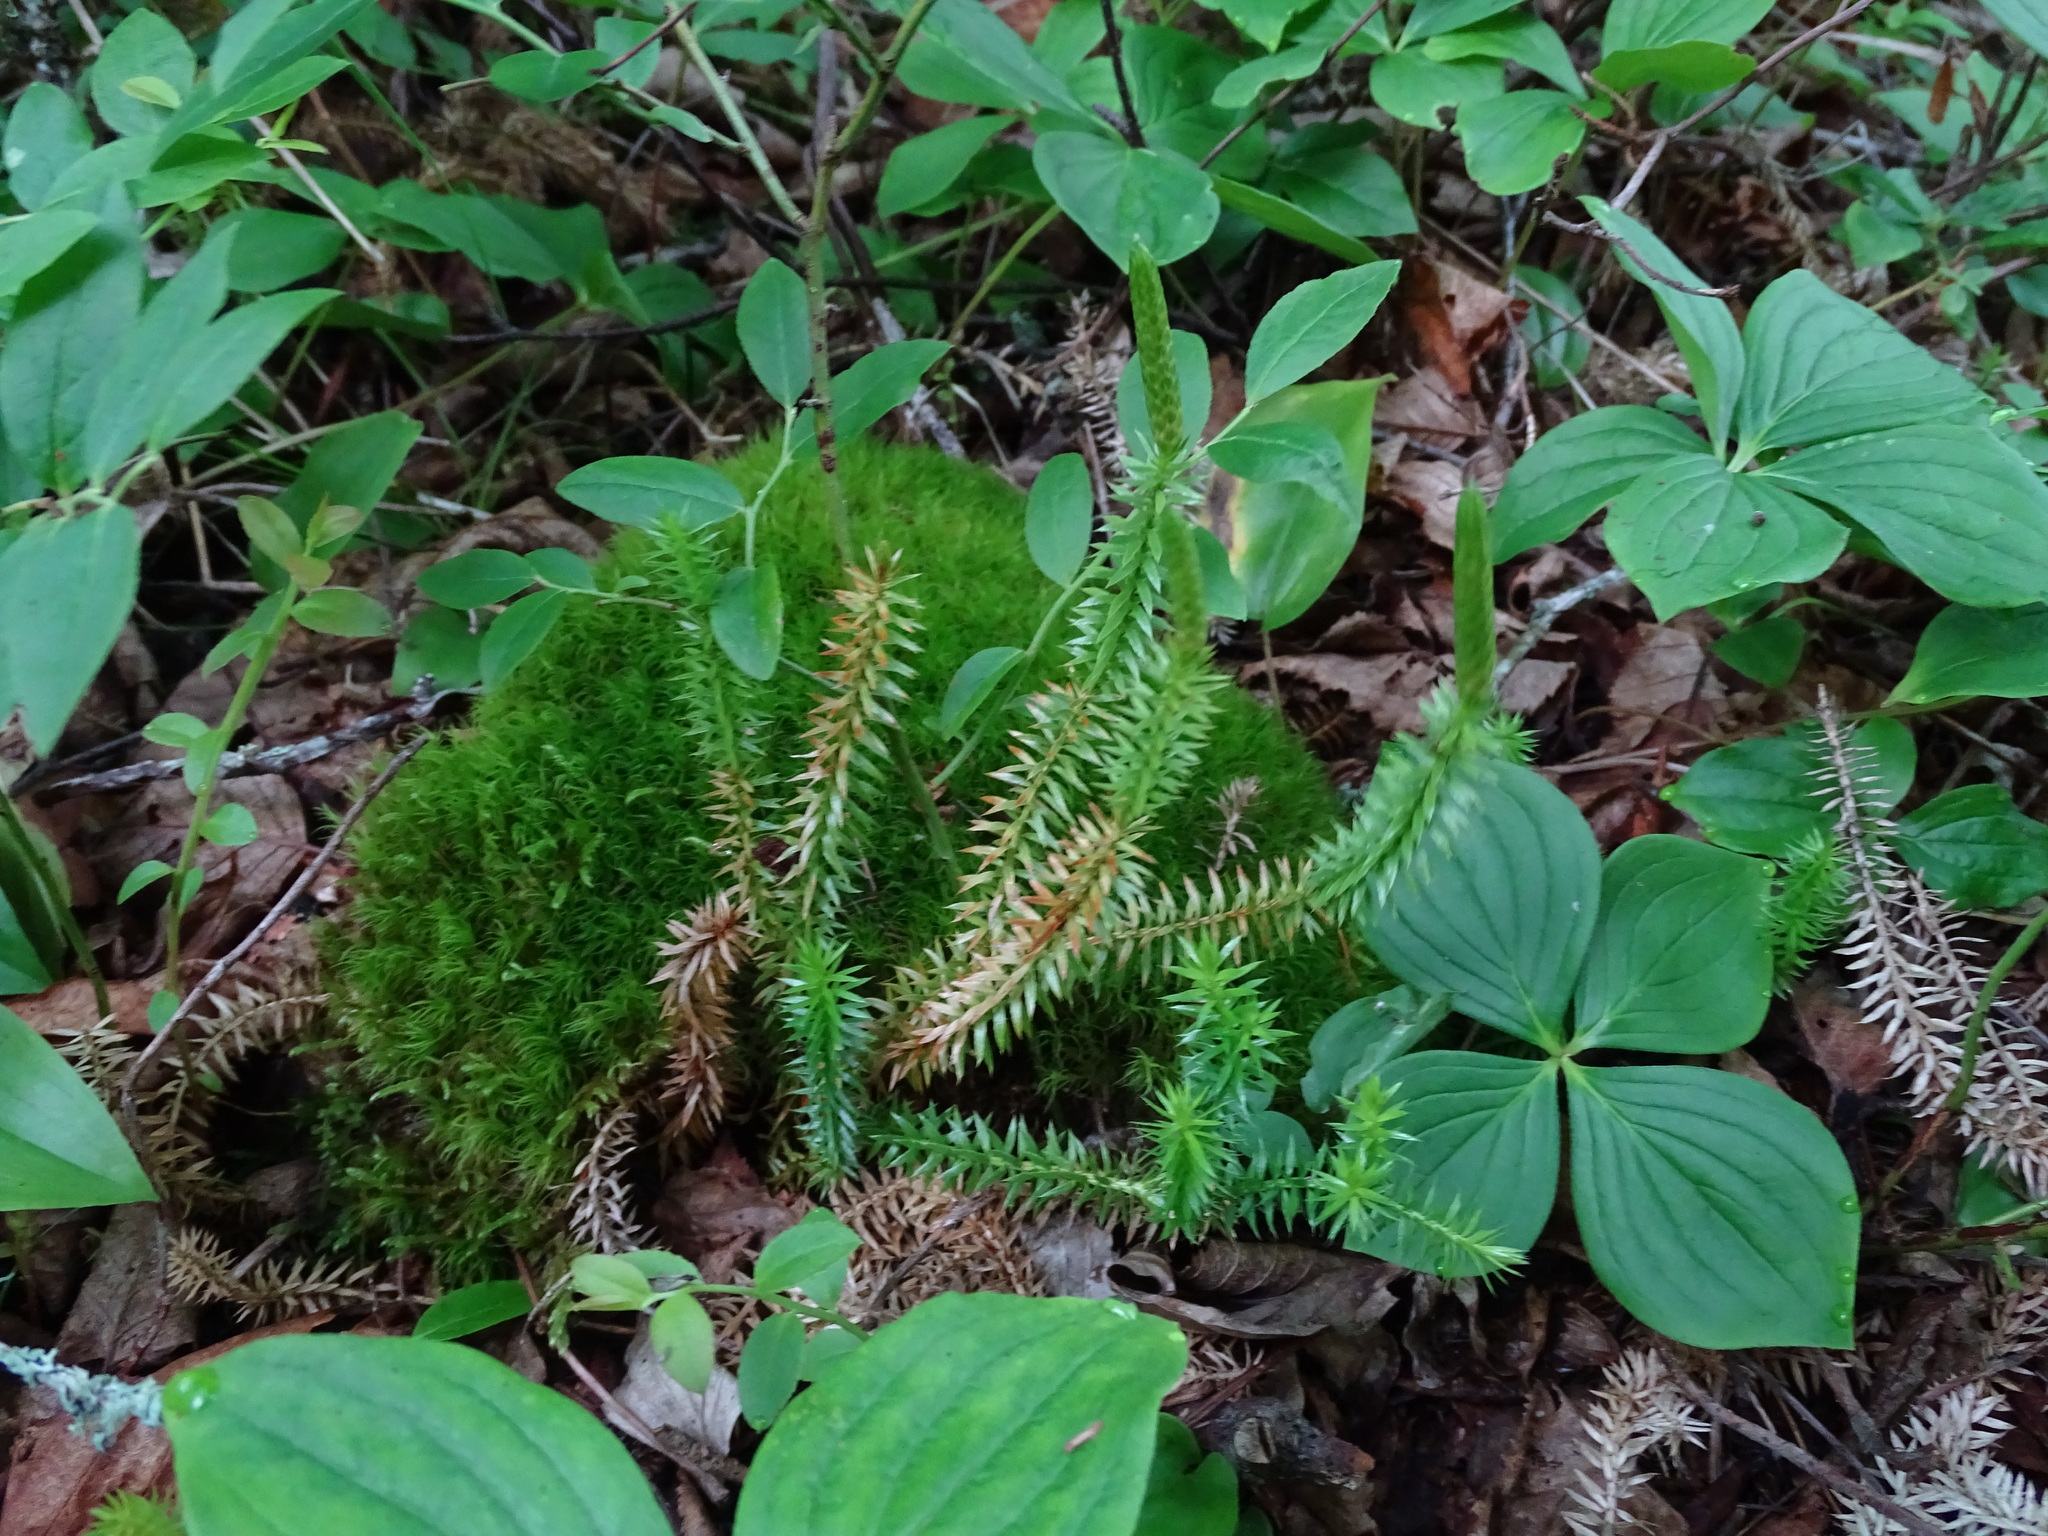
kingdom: Plantae
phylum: Tracheophyta
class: Lycopodiopsida
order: Lycopodiales
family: Lycopodiaceae
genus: Spinulum
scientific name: Spinulum annotinum
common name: Interrupted club-moss
